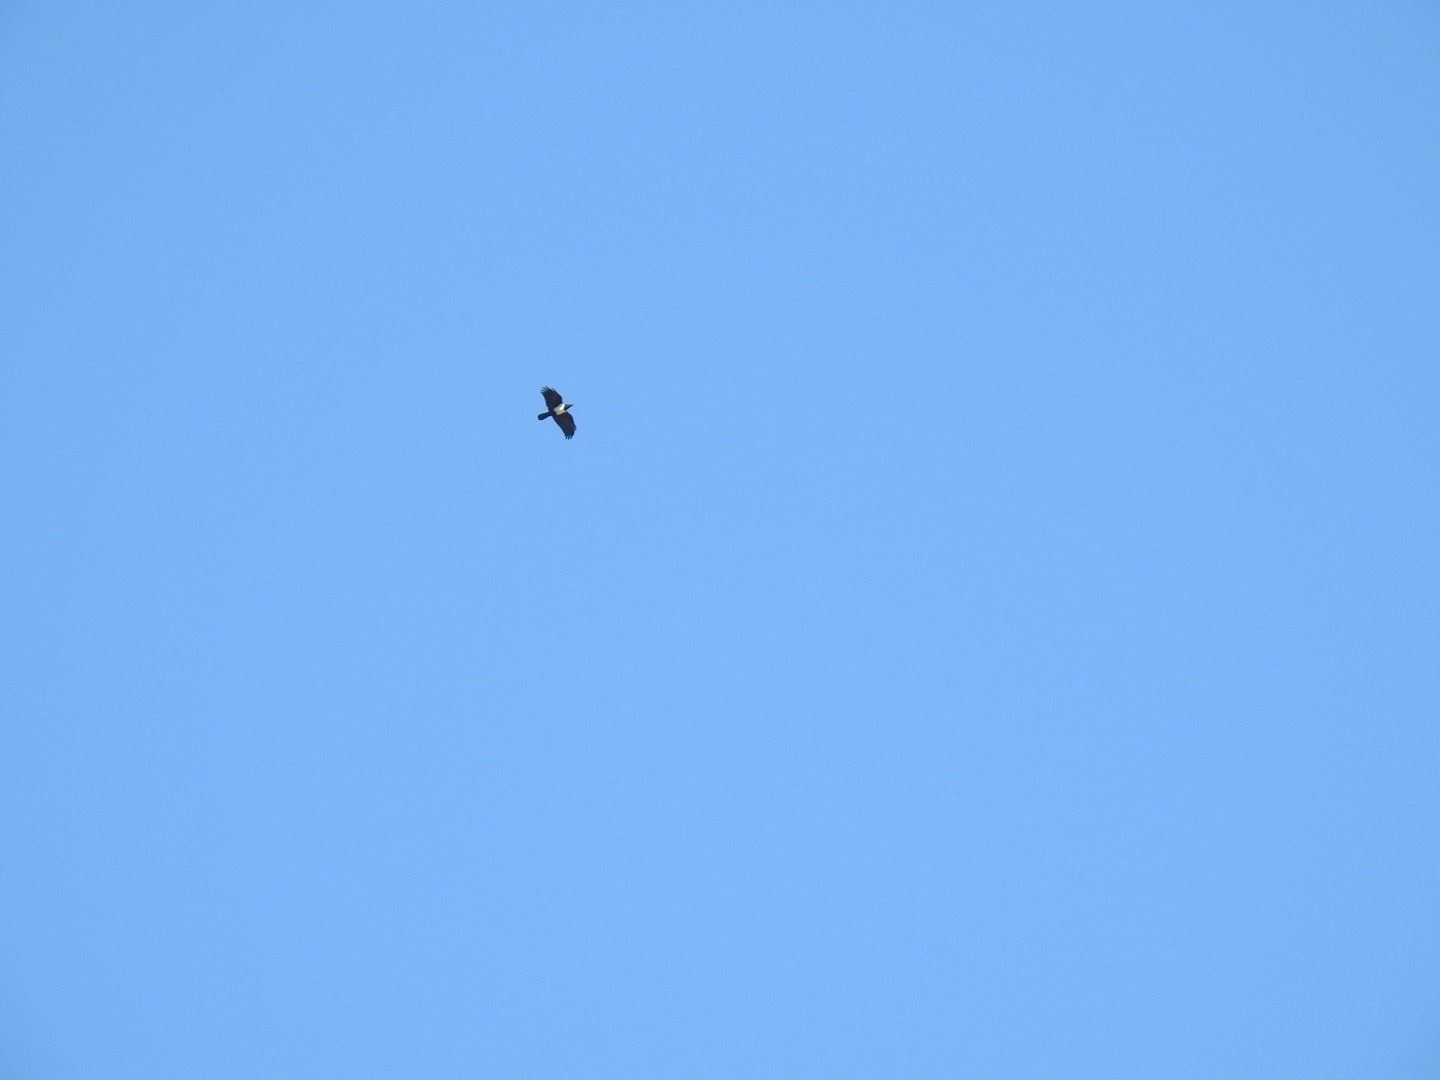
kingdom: Animalia
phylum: Chordata
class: Aves
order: Passeriformes
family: Corvidae
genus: Corvus
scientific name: Corvus albus
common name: Pied crow
